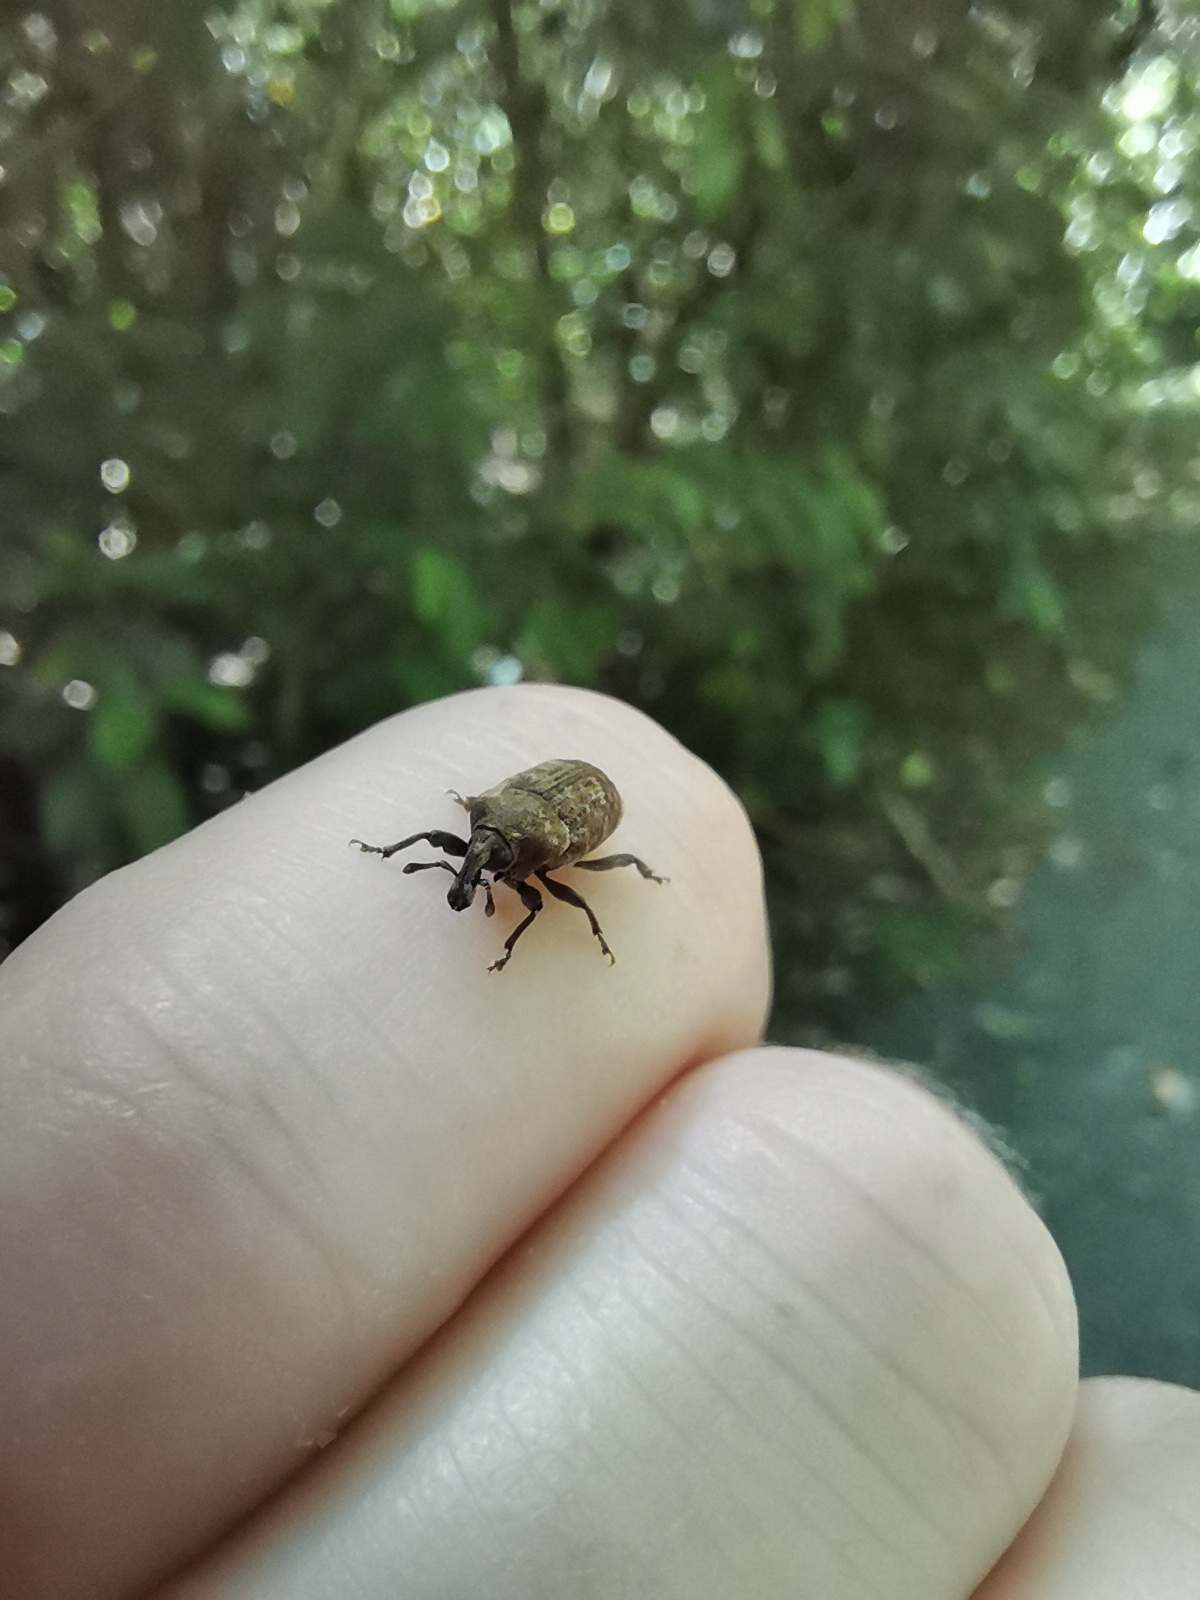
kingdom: Animalia
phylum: Arthropoda
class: Insecta
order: Coleoptera
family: Curculionidae
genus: Homoreda
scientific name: Homoreda
